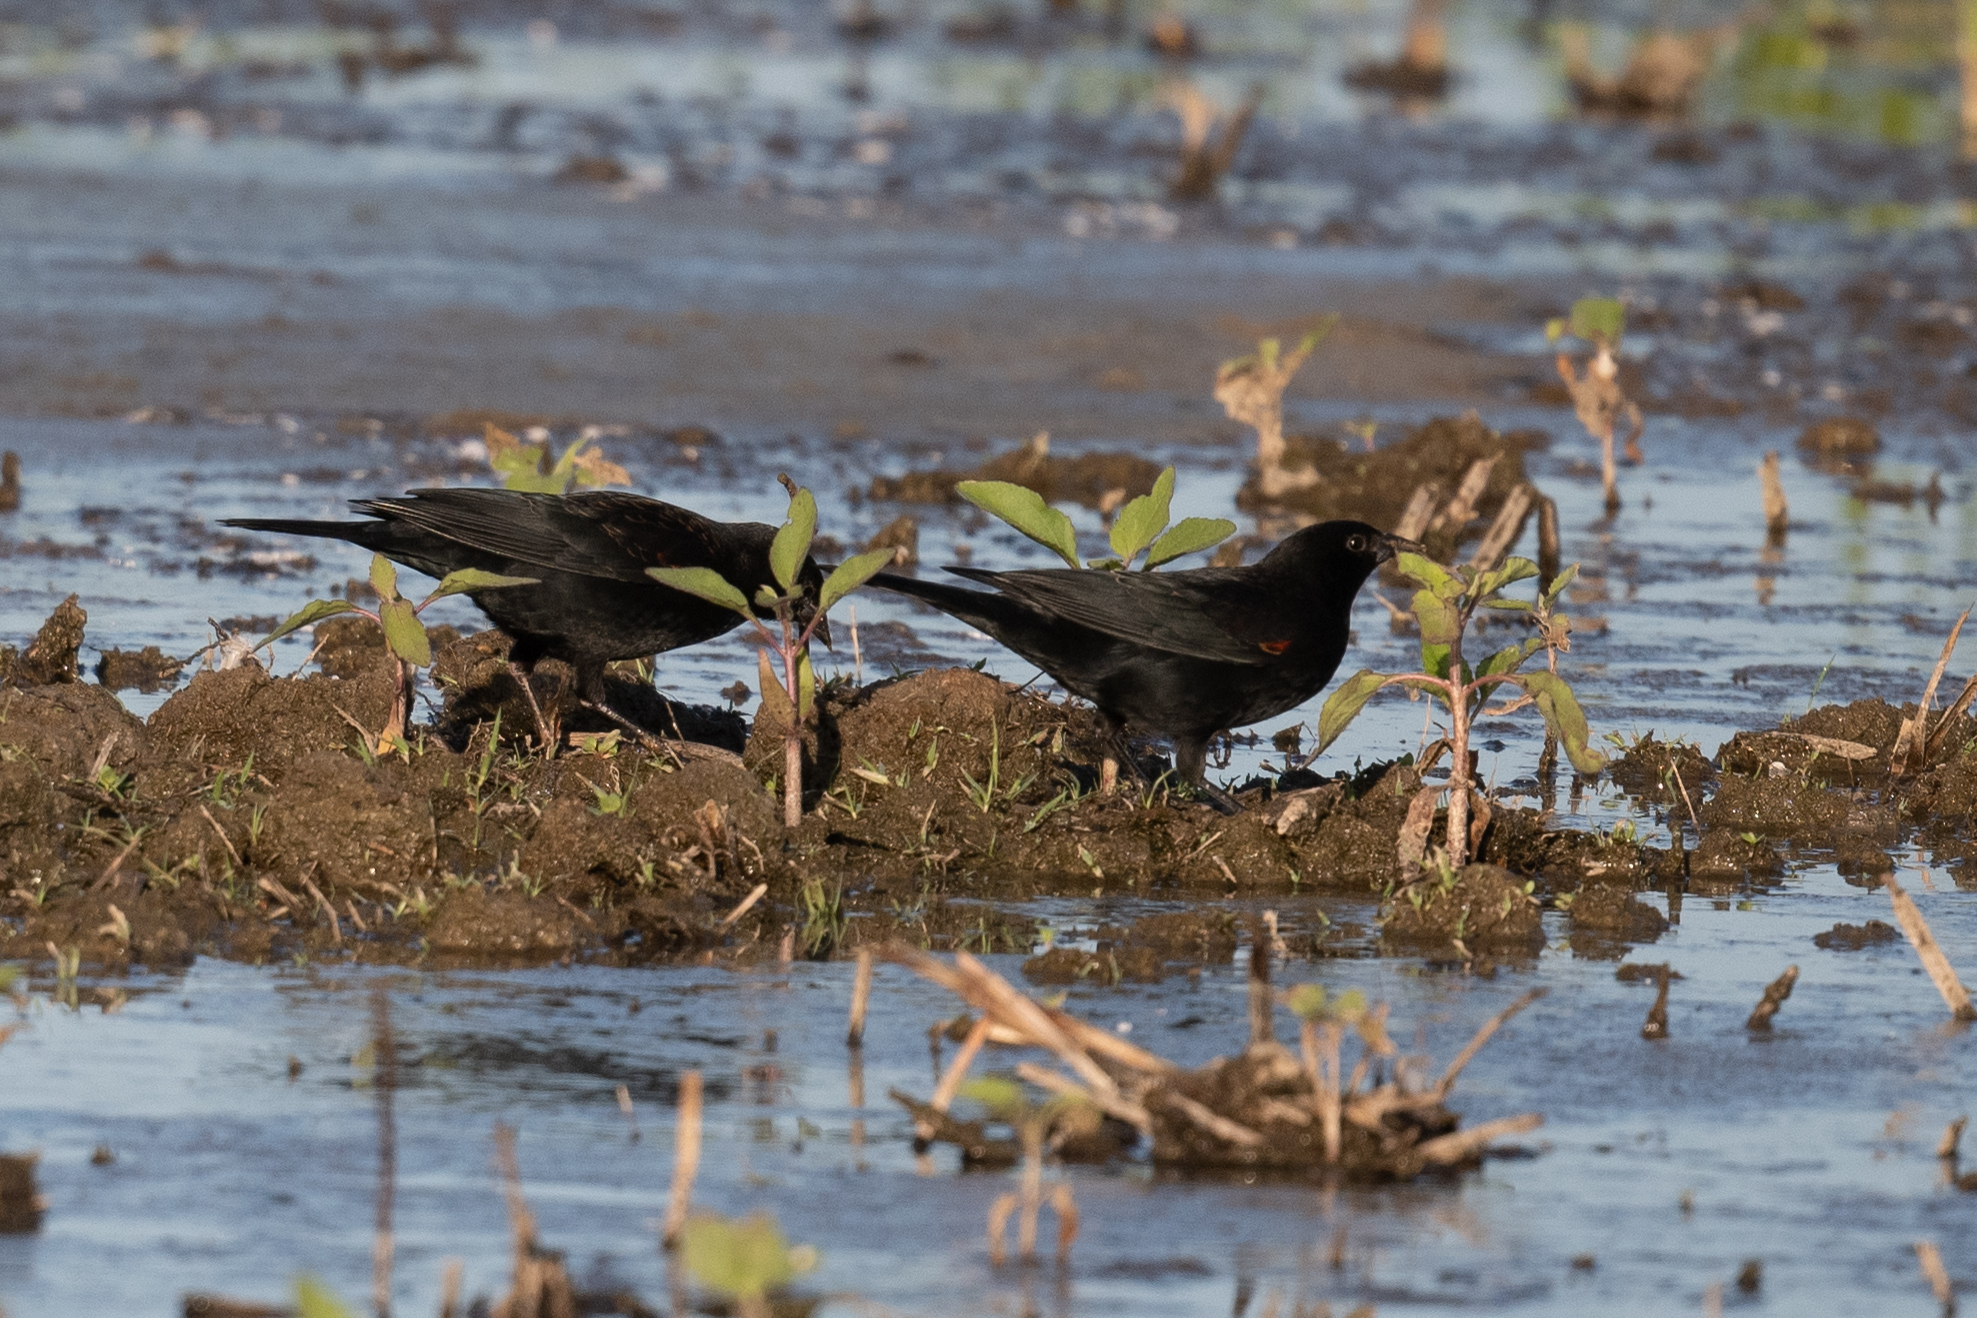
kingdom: Animalia
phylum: Chordata
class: Aves
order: Passeriformes
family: Icteridae
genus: Agelaius
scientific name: Agelaius phoeniceus
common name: Red-winged blackbird
